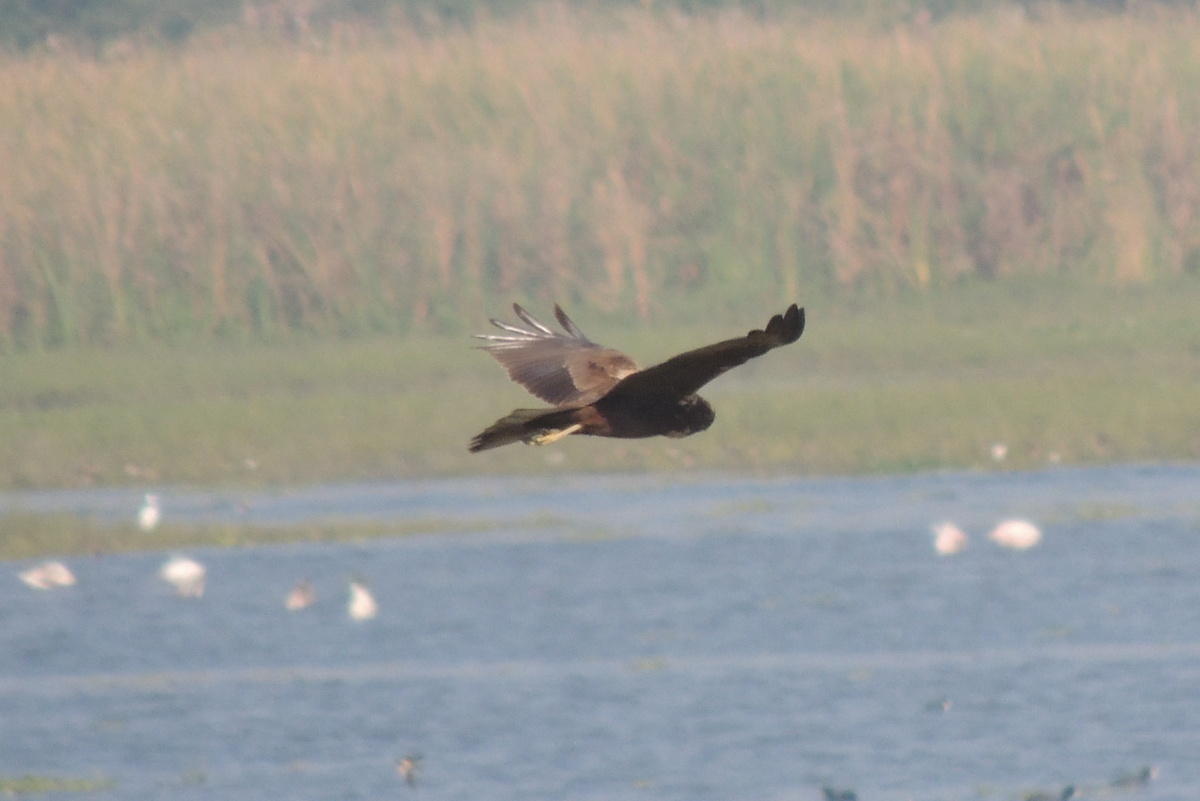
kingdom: Animalia
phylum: Chordata
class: Aves
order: Accipitriformes
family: Accipitridae
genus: Circus
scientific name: Circus aeruginosus
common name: Western marsh harrier
